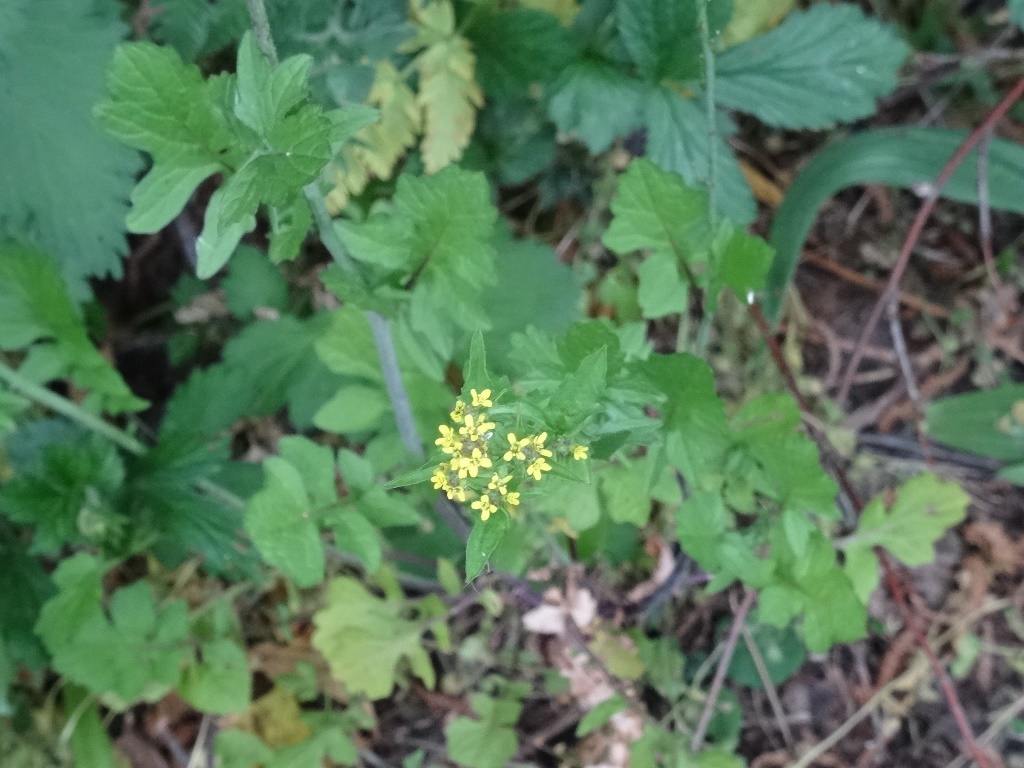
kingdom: Plantae
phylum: Tracheophyta
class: Magnoliopsida
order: Brassicales
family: Brassicaceae
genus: Sisymbrium
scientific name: Sisymbrium officinale
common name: Hedge mustard
